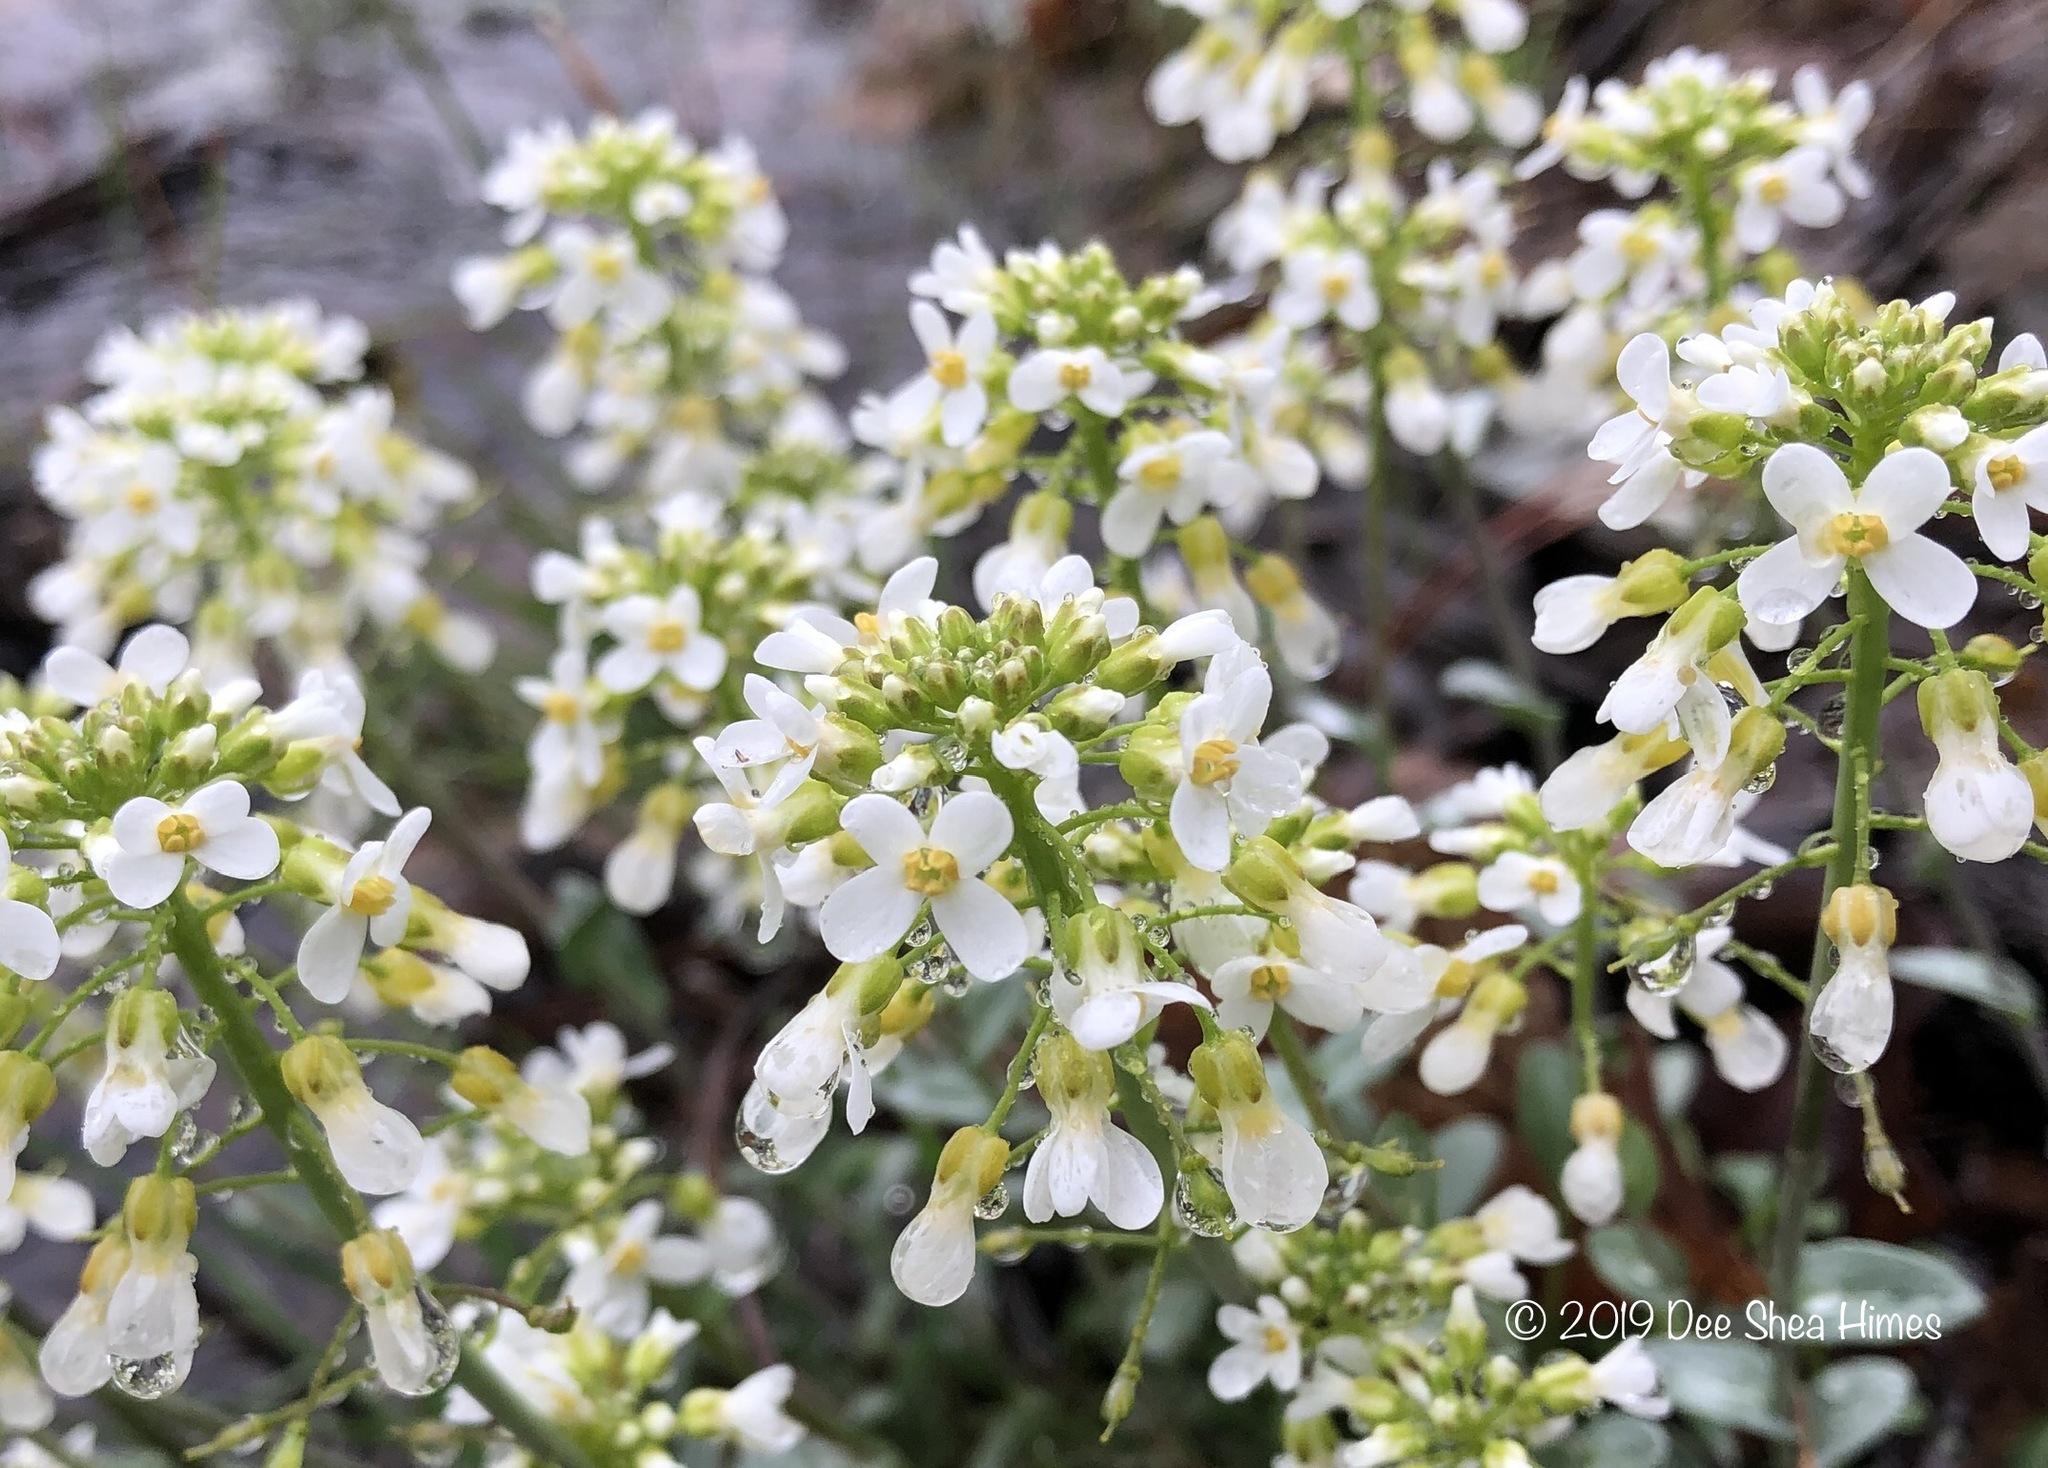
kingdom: Plantae
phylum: Tracheophyta
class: Magnoliopsida
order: Brassicales
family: Brassicaceae
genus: Noccaea
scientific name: Noccaea fendleri
